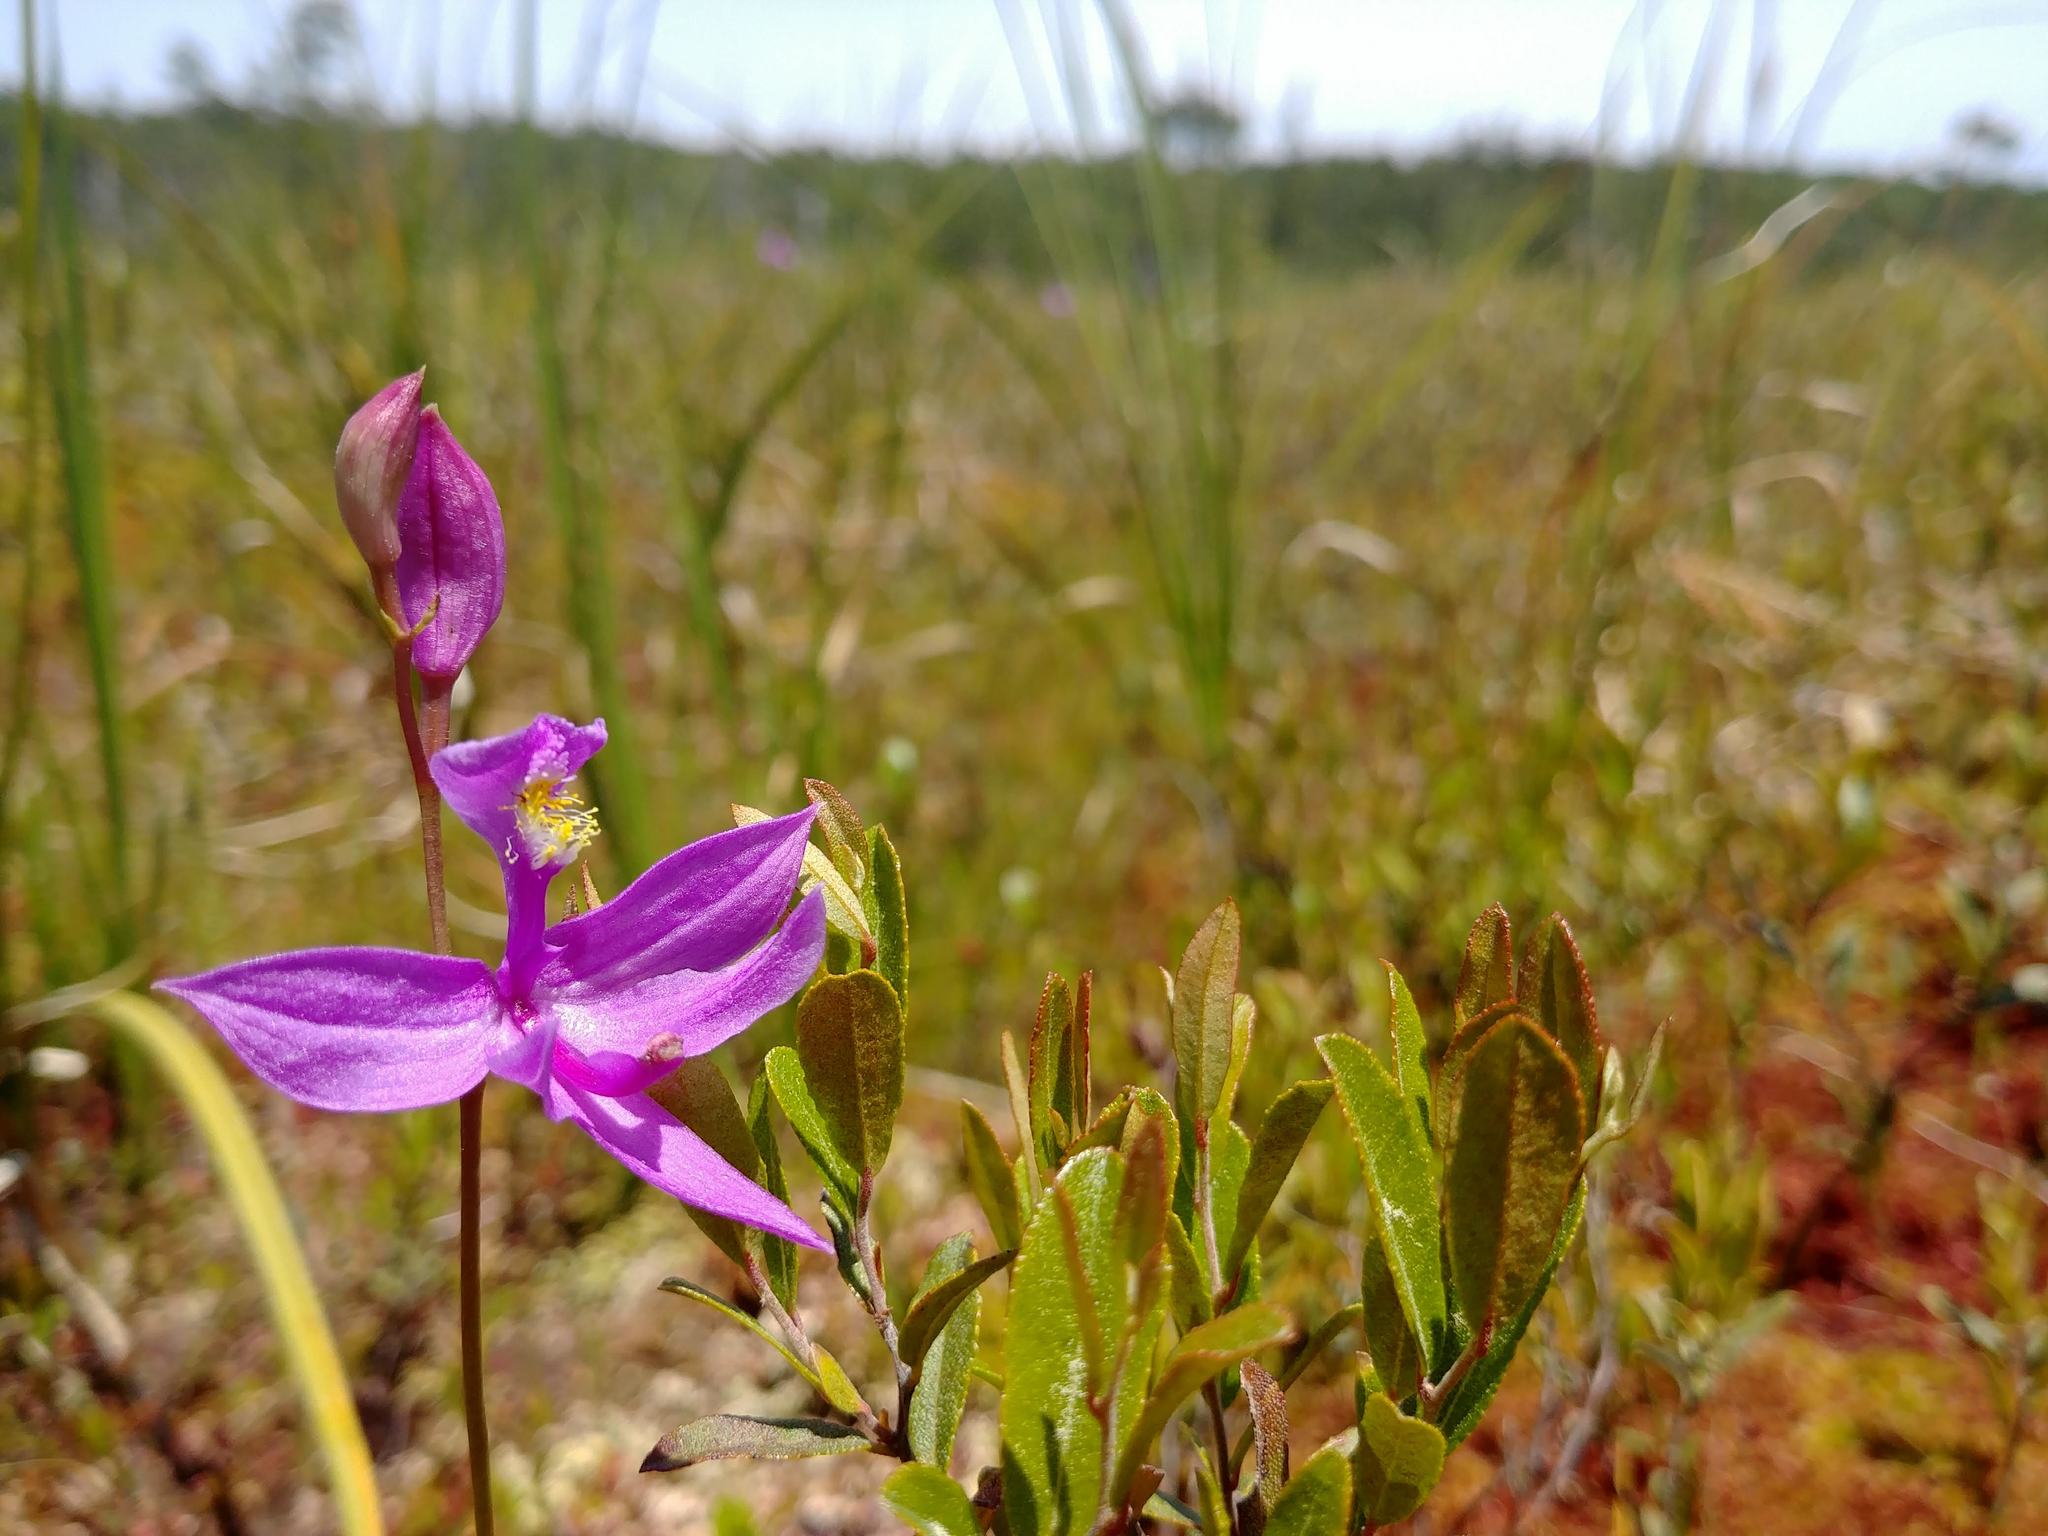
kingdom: Plantae
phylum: Tracheophyta
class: Liliopsida
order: Asparagales
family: Orchidaceae
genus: Calopogon
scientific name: Calopogon tuberosus
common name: Grass-pink
